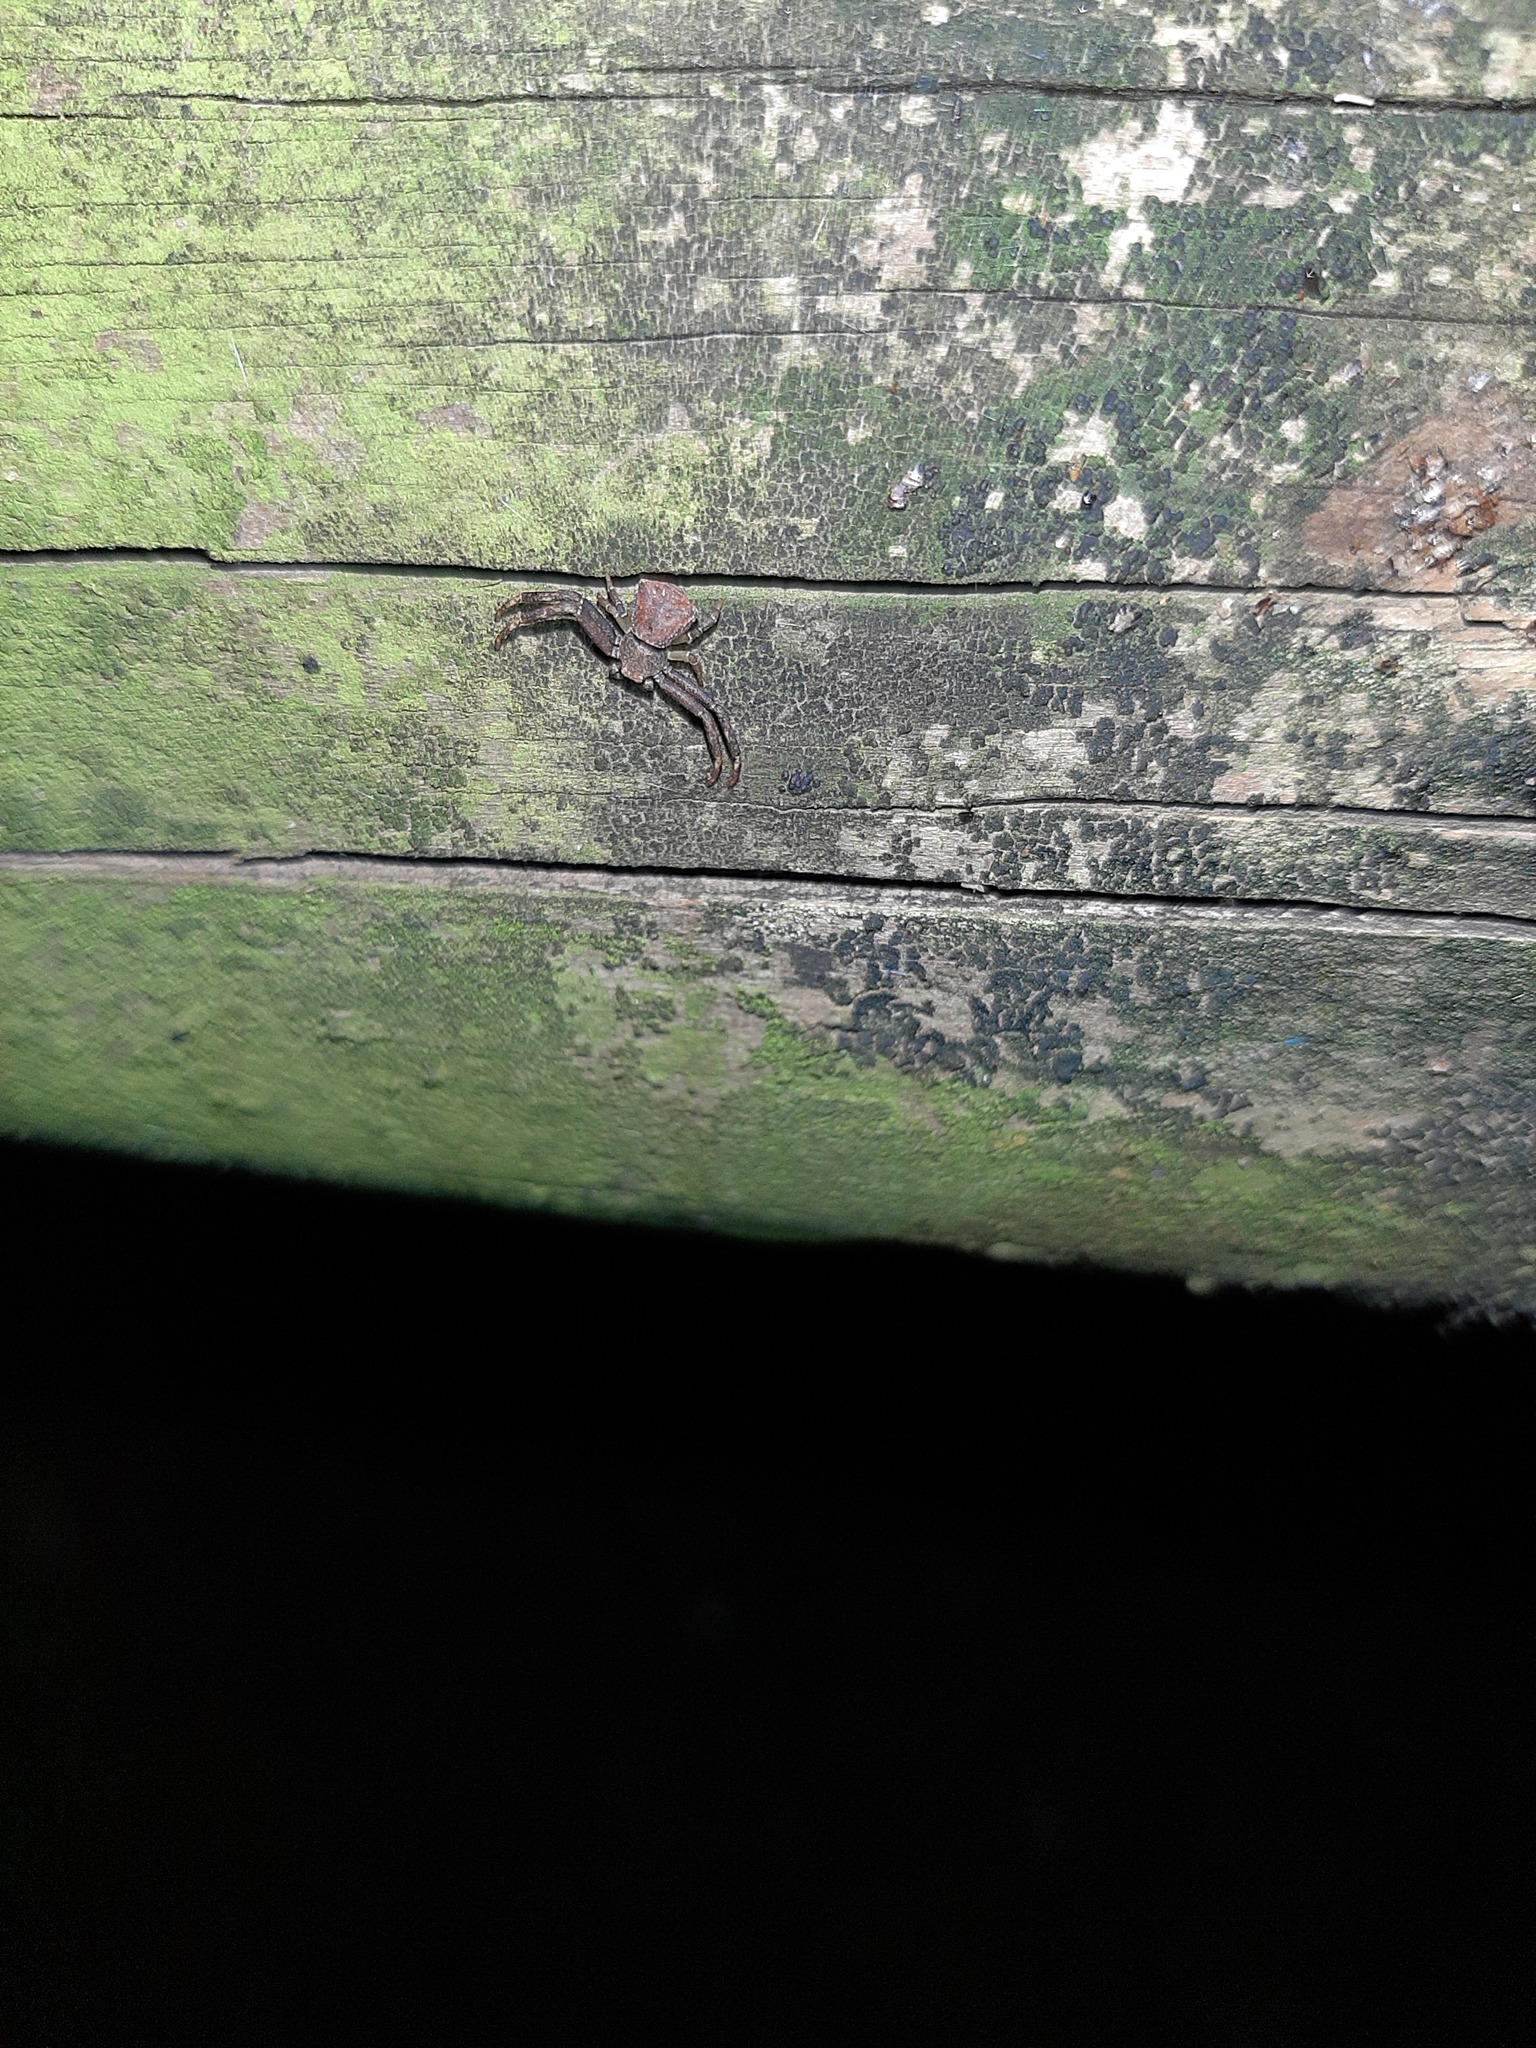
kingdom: Animalia
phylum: Arthropoda
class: Arachnida
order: Araneae
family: Thomisidae
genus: Pistius
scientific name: Pistius truncatus
